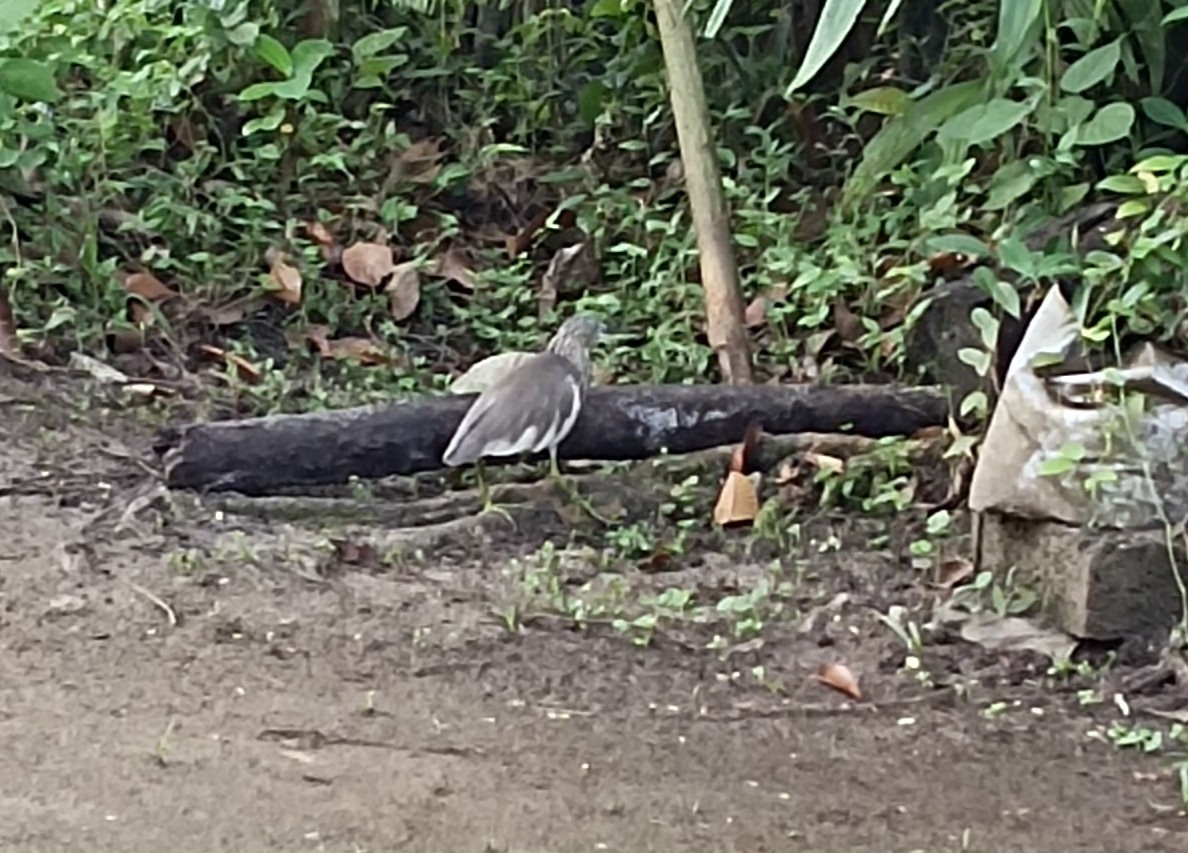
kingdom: Animalia
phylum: Chordata
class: Aves
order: Pelecaniformes
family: Ardeidae
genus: Ardeola
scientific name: Ardeola grayii
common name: Indian pond heron
